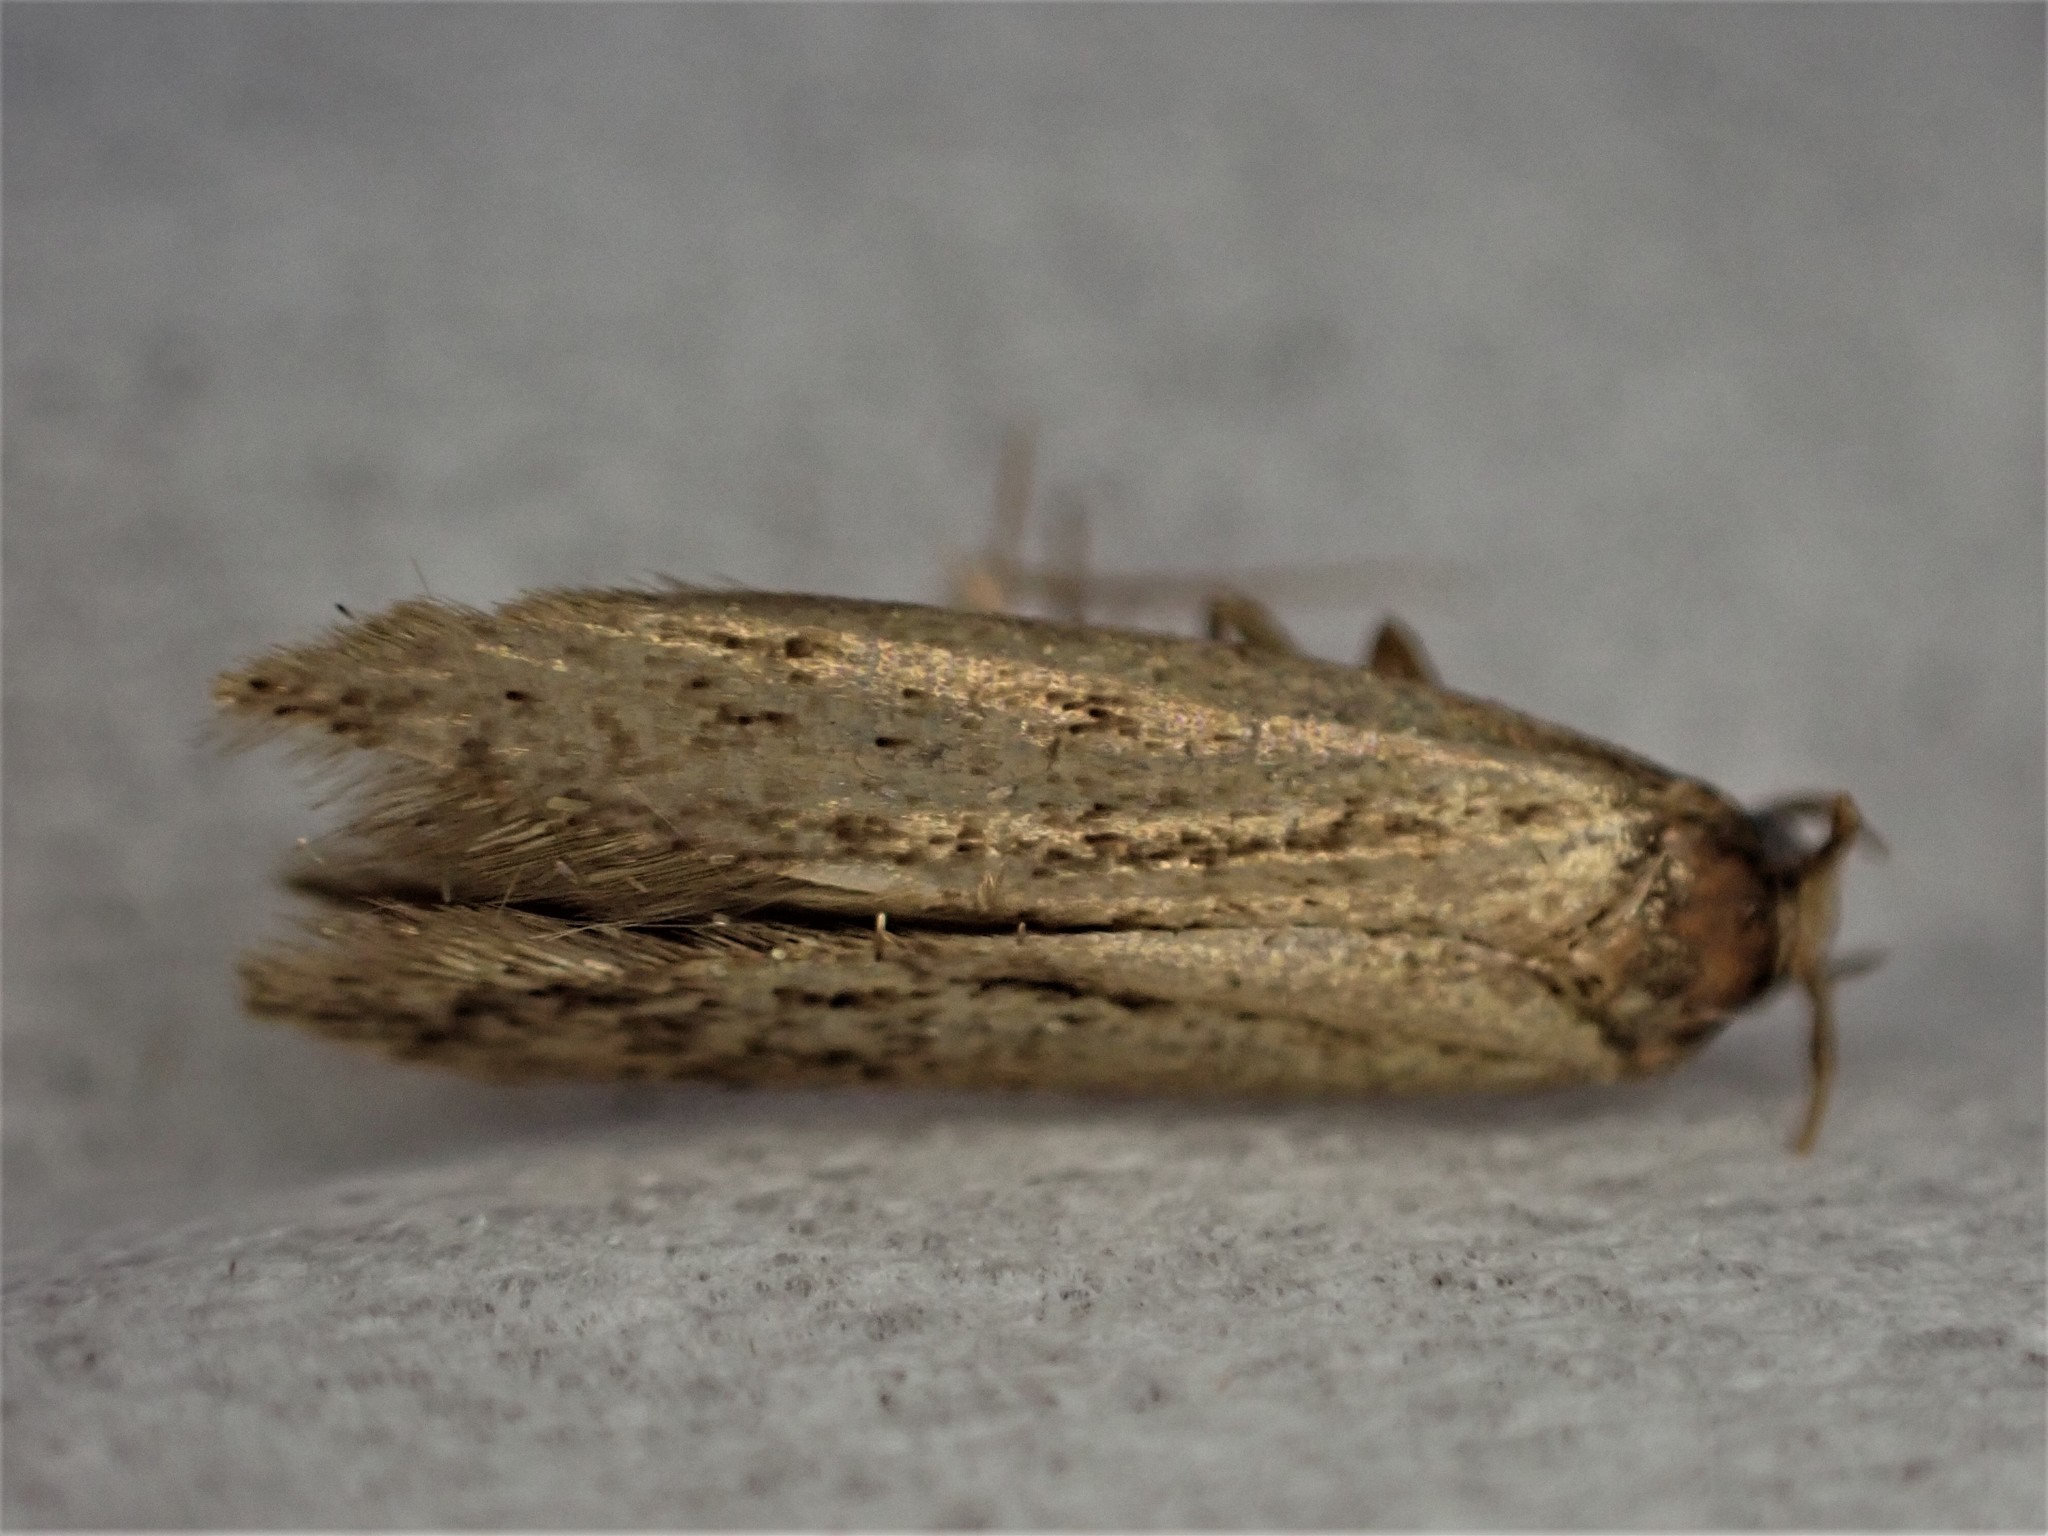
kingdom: Animalia
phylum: Arthropoda
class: Insecta
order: Lepidoptera
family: Tineidae
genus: Opogona
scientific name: Opogona omoscopa
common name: Moth
